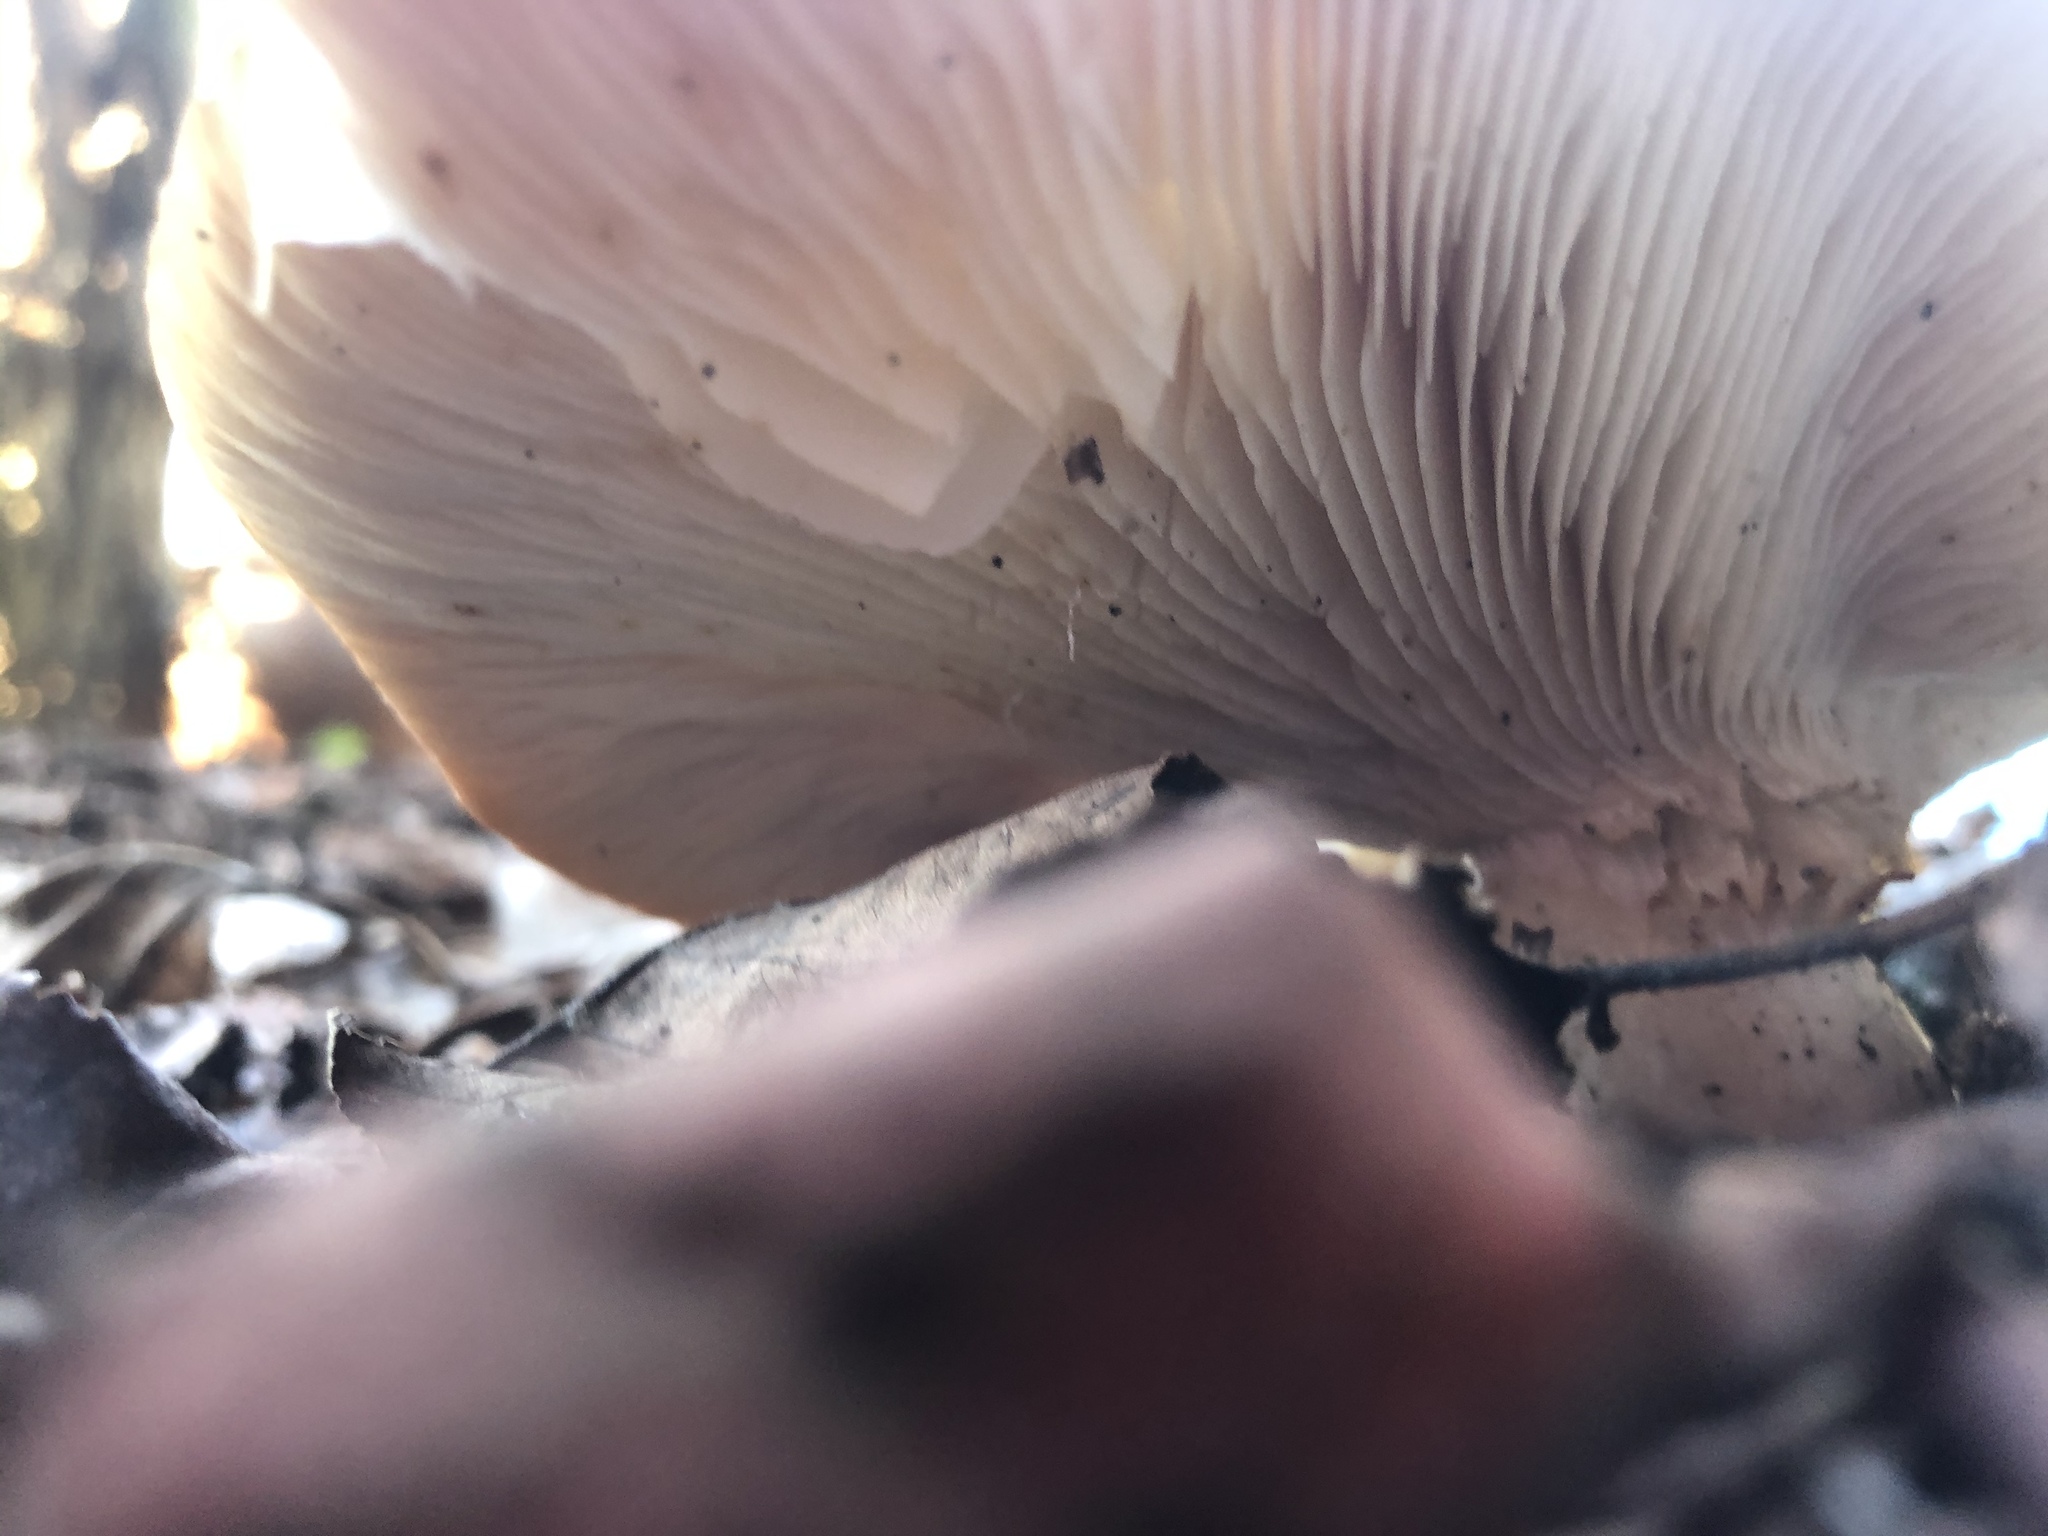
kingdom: Fungi
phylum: Basidiomycota
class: Agaricomycetes
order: Agaricales
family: Tricholomataceae
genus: Leucopaxillus
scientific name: Leucopaxillus gentianeus
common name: Bitter funnel
